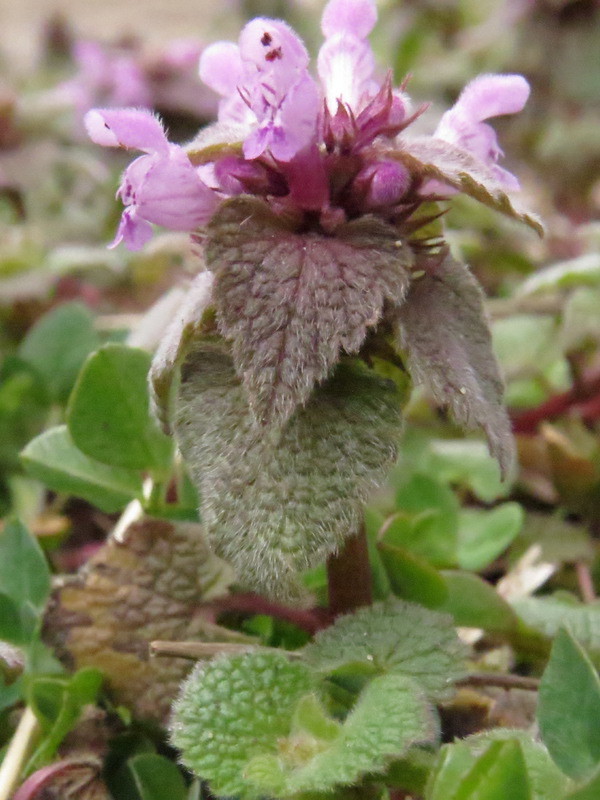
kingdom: Plantae
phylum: Tracheophyta
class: Magnoliopsida
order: Lamiales
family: Lamiaceae
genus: Lamium
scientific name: Lamium purpureum
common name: Red dead-nettle
